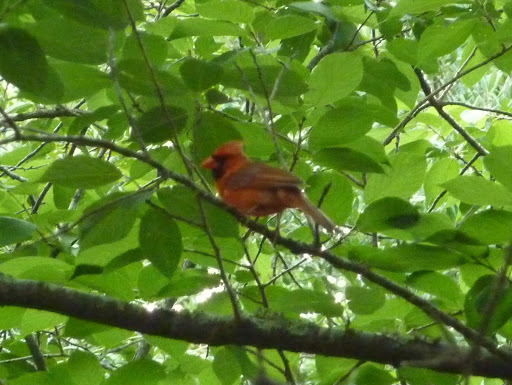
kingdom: Animalia
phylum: Chordata
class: Aves
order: Passeriformes
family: Cardinalidae
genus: Cardinalis
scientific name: Cardinalis cardinalis
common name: Northern cardinal
